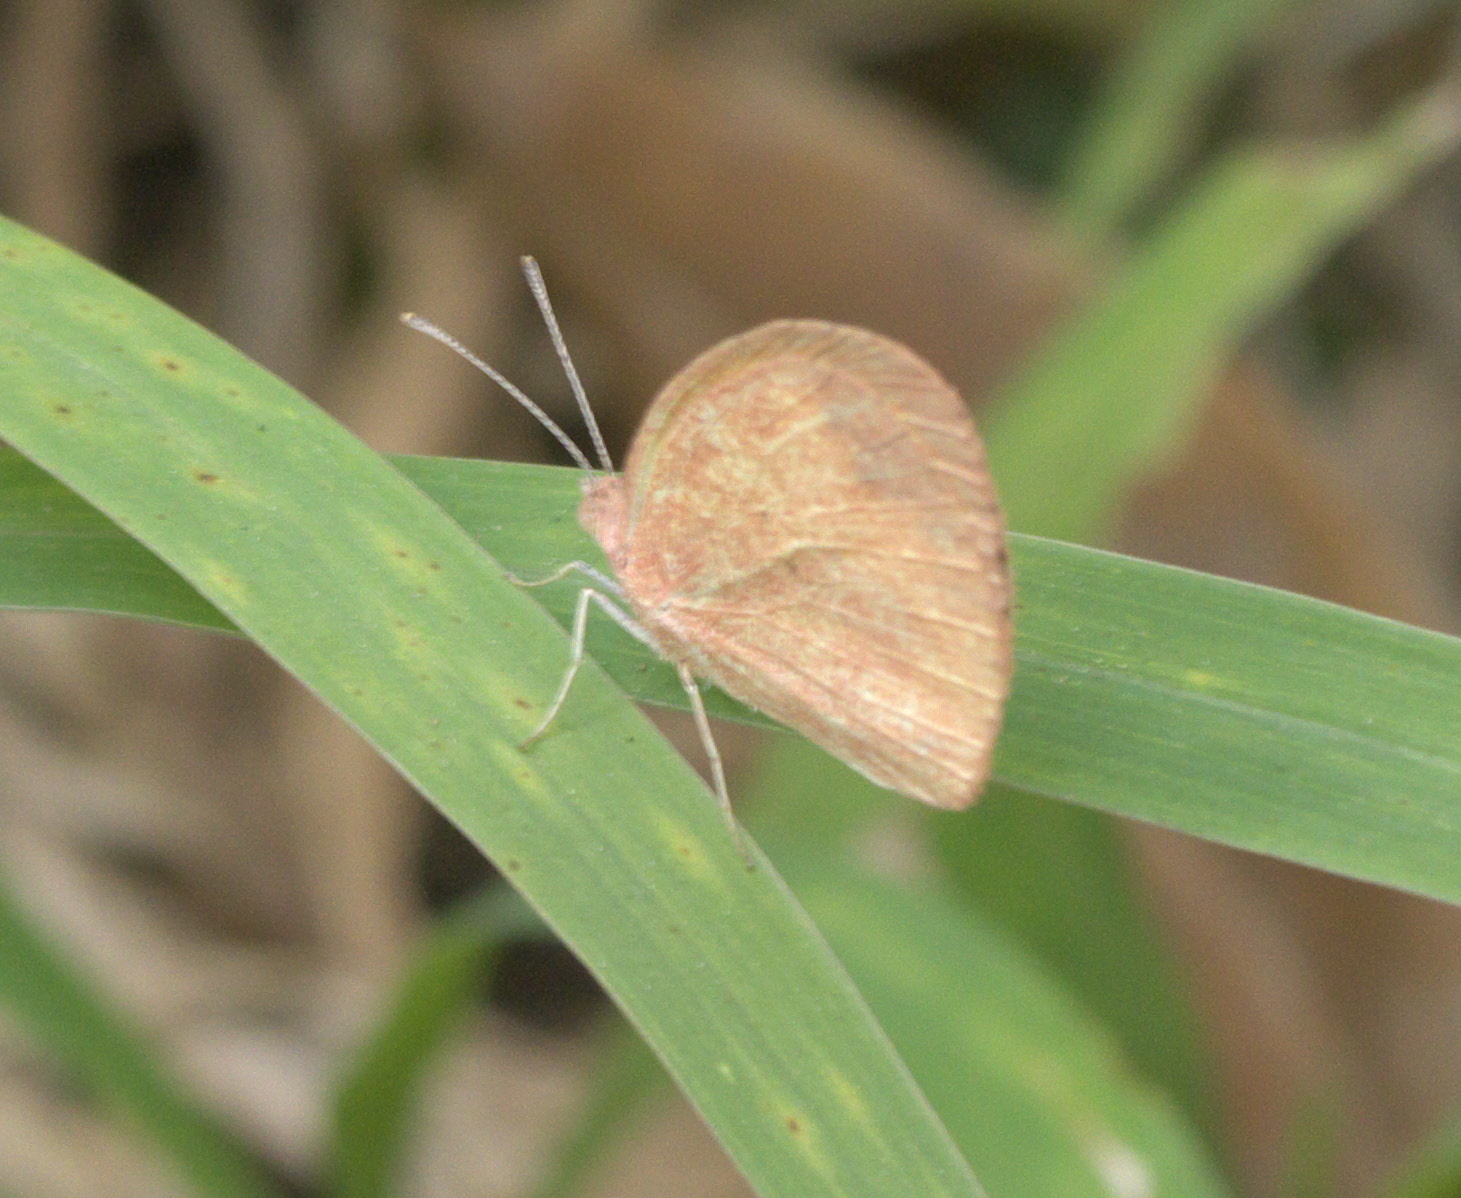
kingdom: Animalia
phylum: Arthropoda
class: Insecta
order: Lepidoptera
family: Pieridae
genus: Eurema
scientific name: Eurema daira
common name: Barred sulphur
